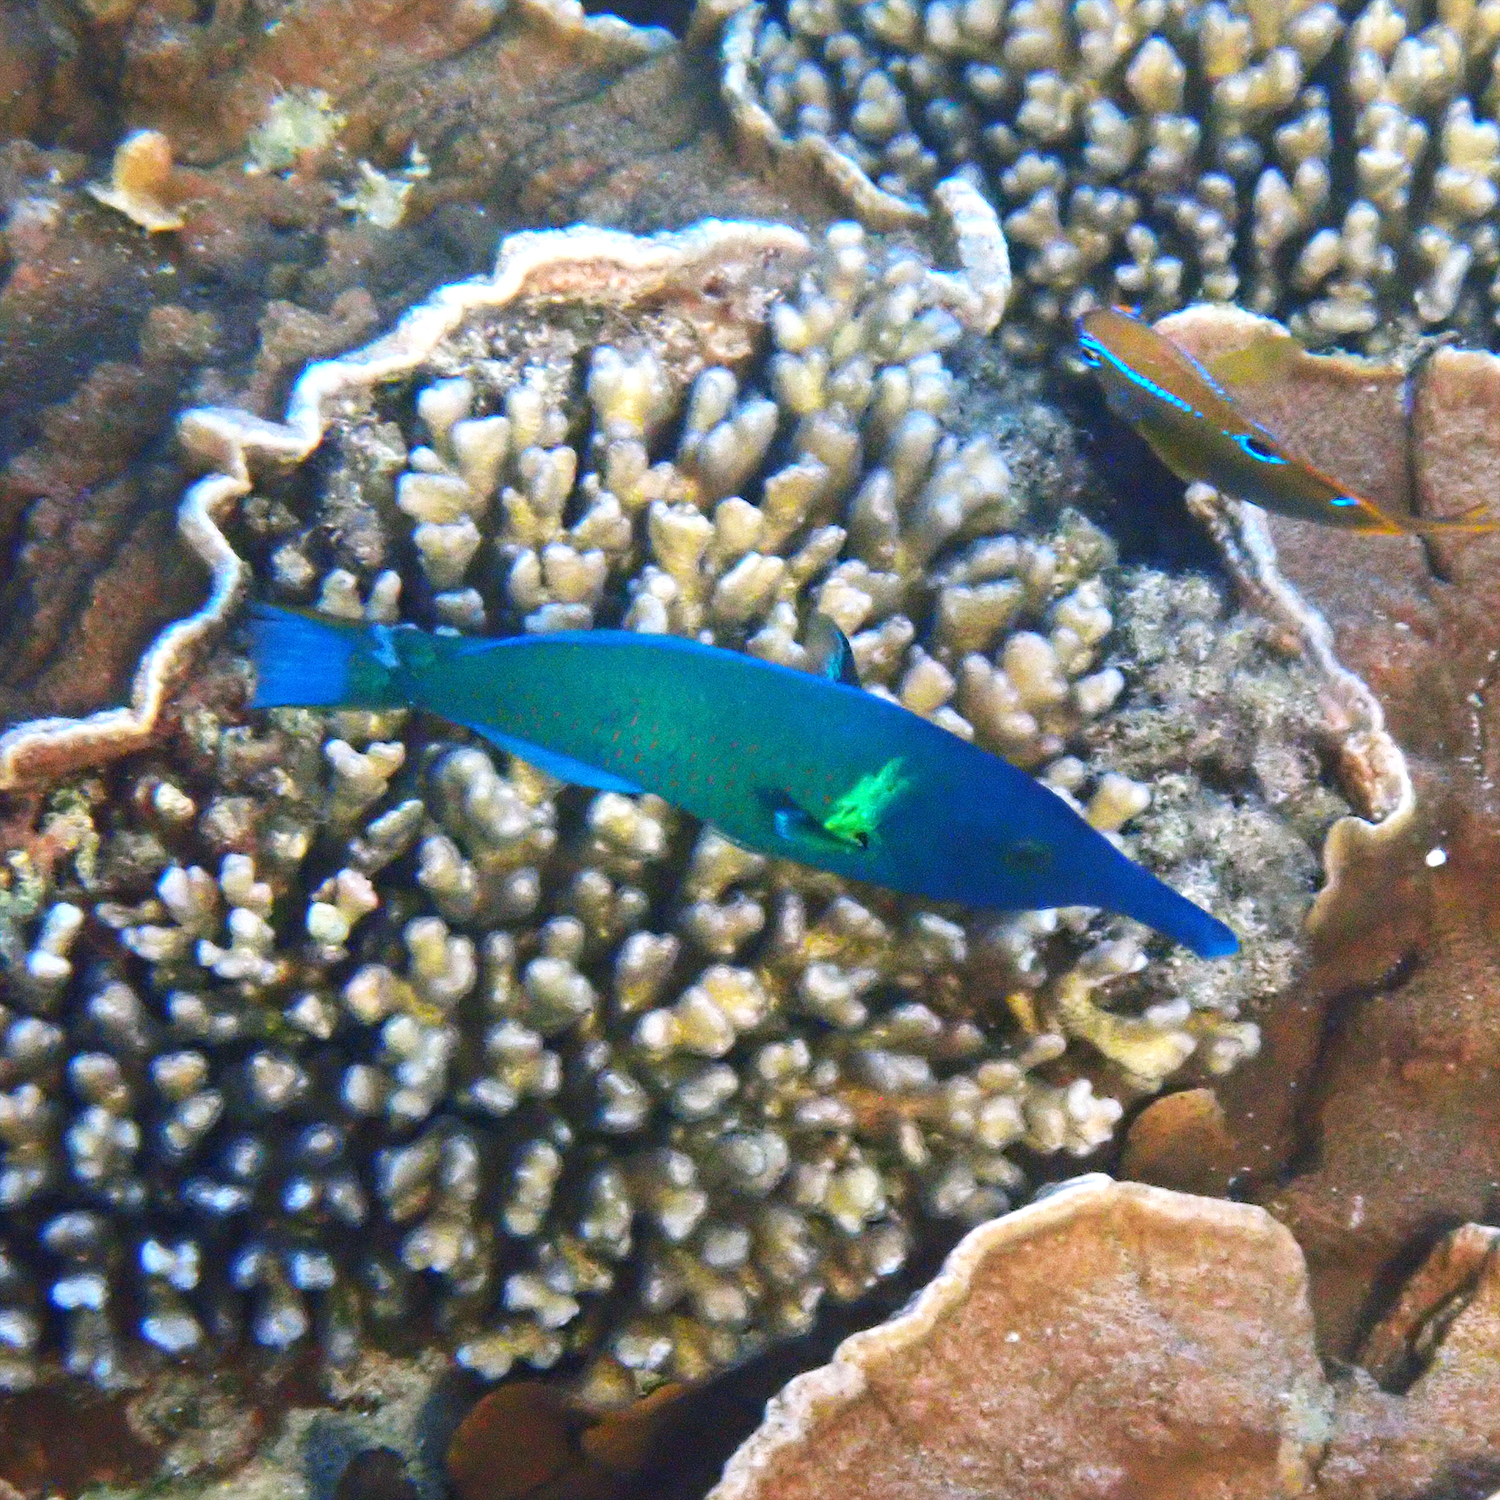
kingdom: Animalia
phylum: Chordata
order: Perciformes
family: Labridae
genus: Gomphosus
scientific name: Gomphosus varius
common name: Bird wrasse
